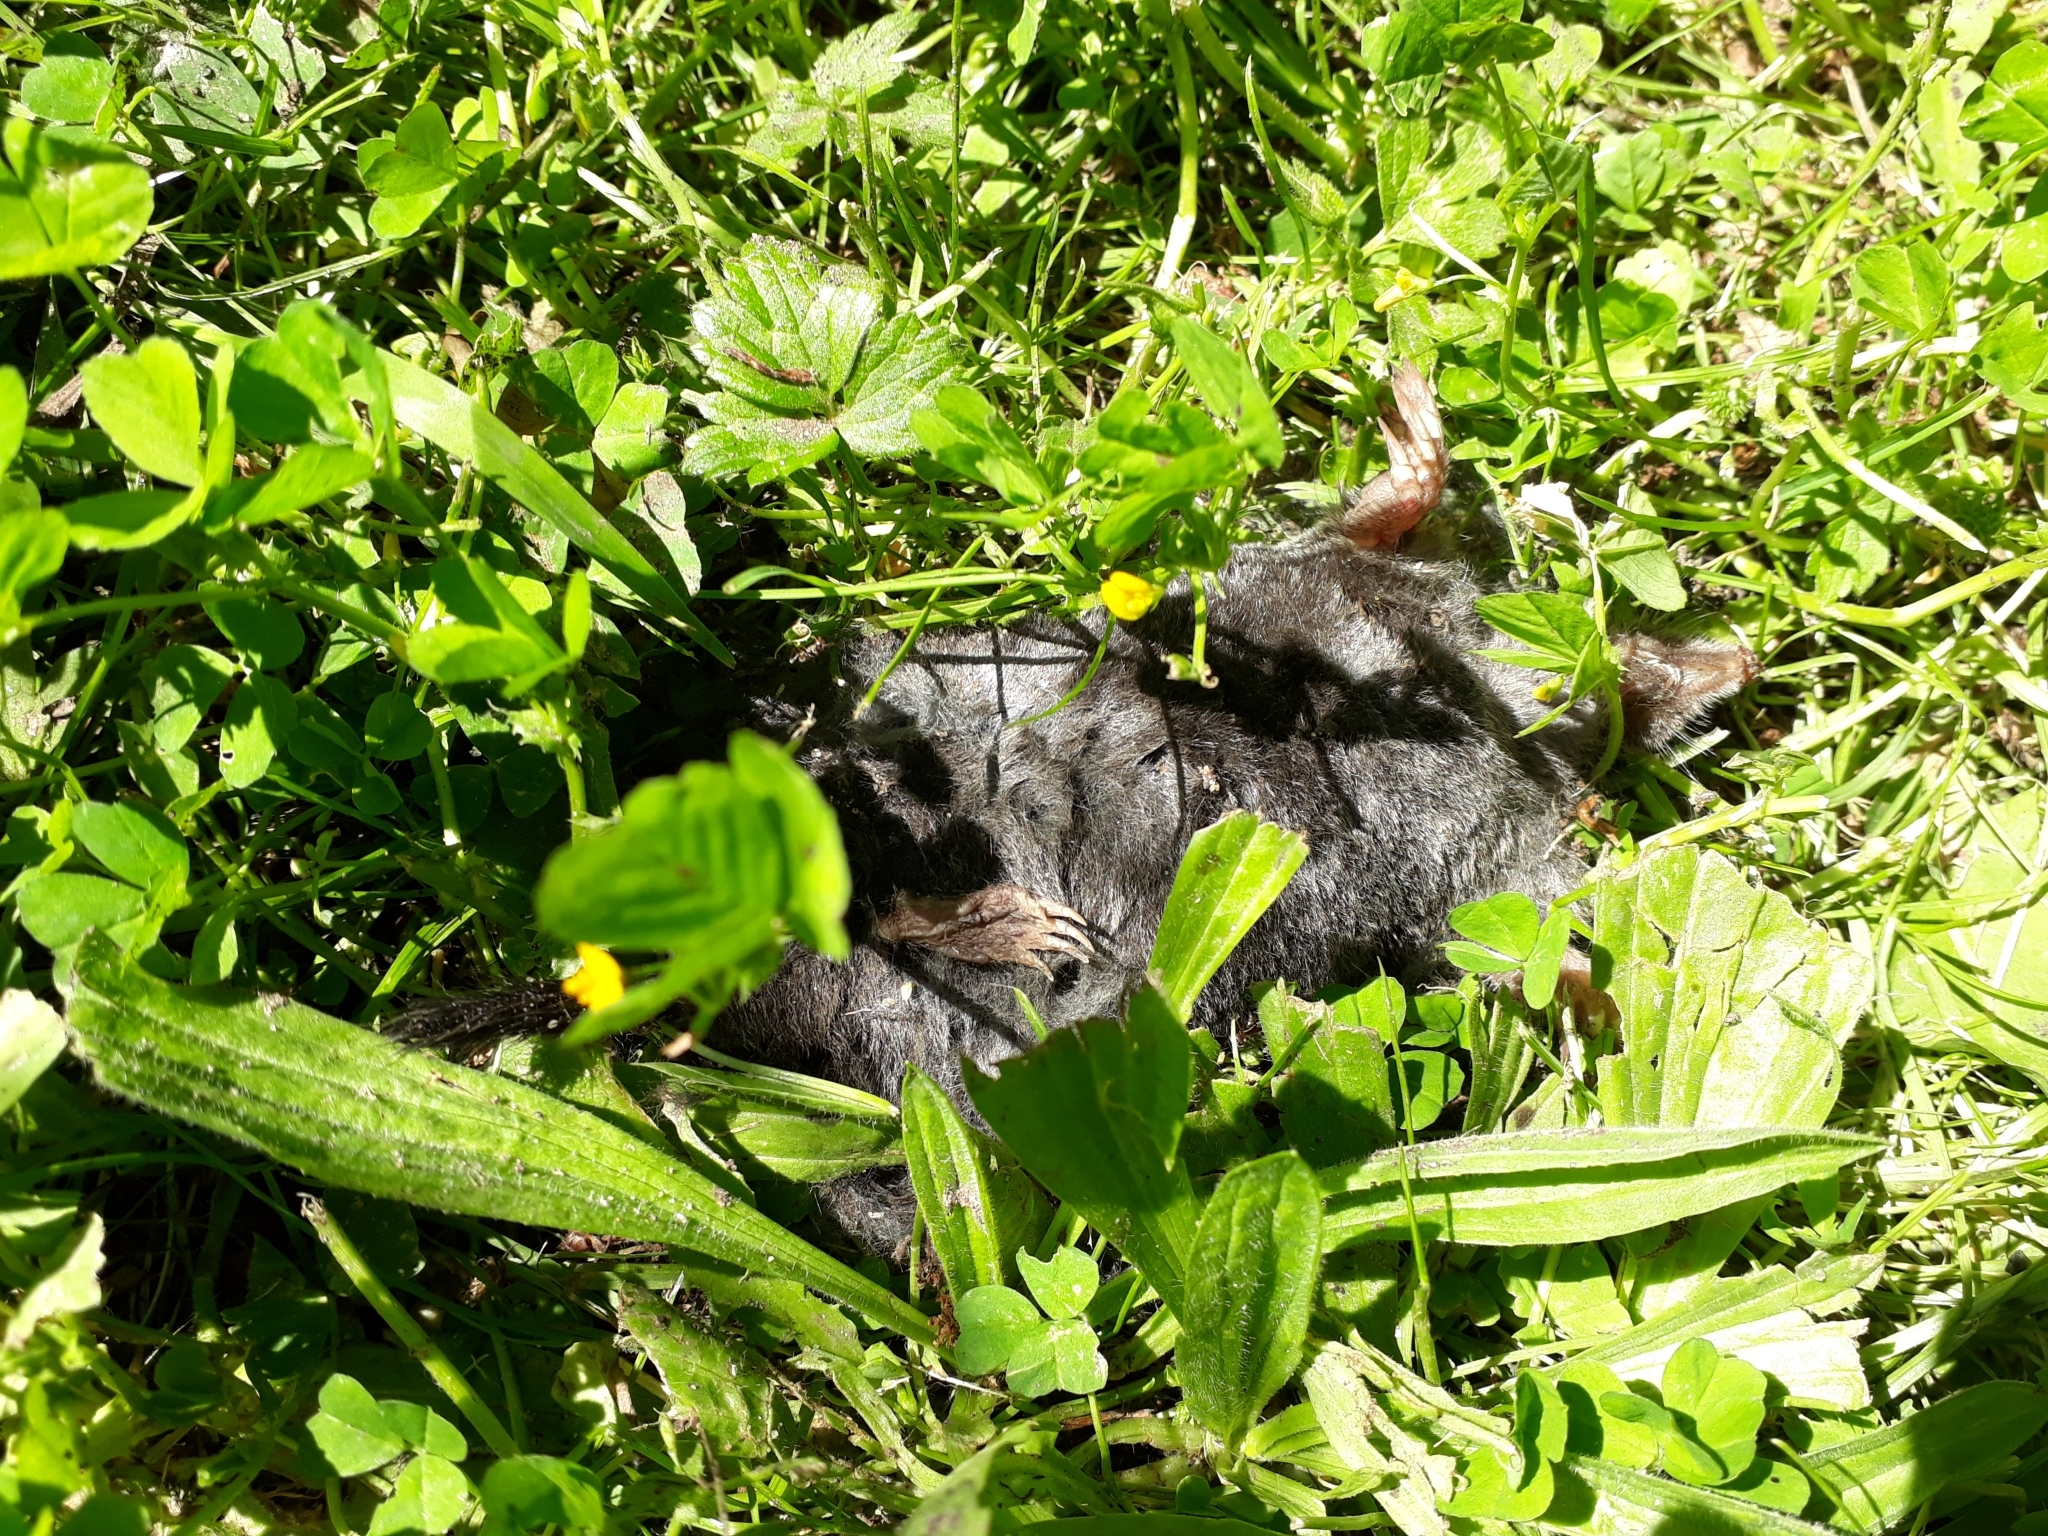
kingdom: Animalia
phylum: Chordata
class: Mammalia
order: Soricomorpha
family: Talpidae
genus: Talpa
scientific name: Talpa europaea
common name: European mole
